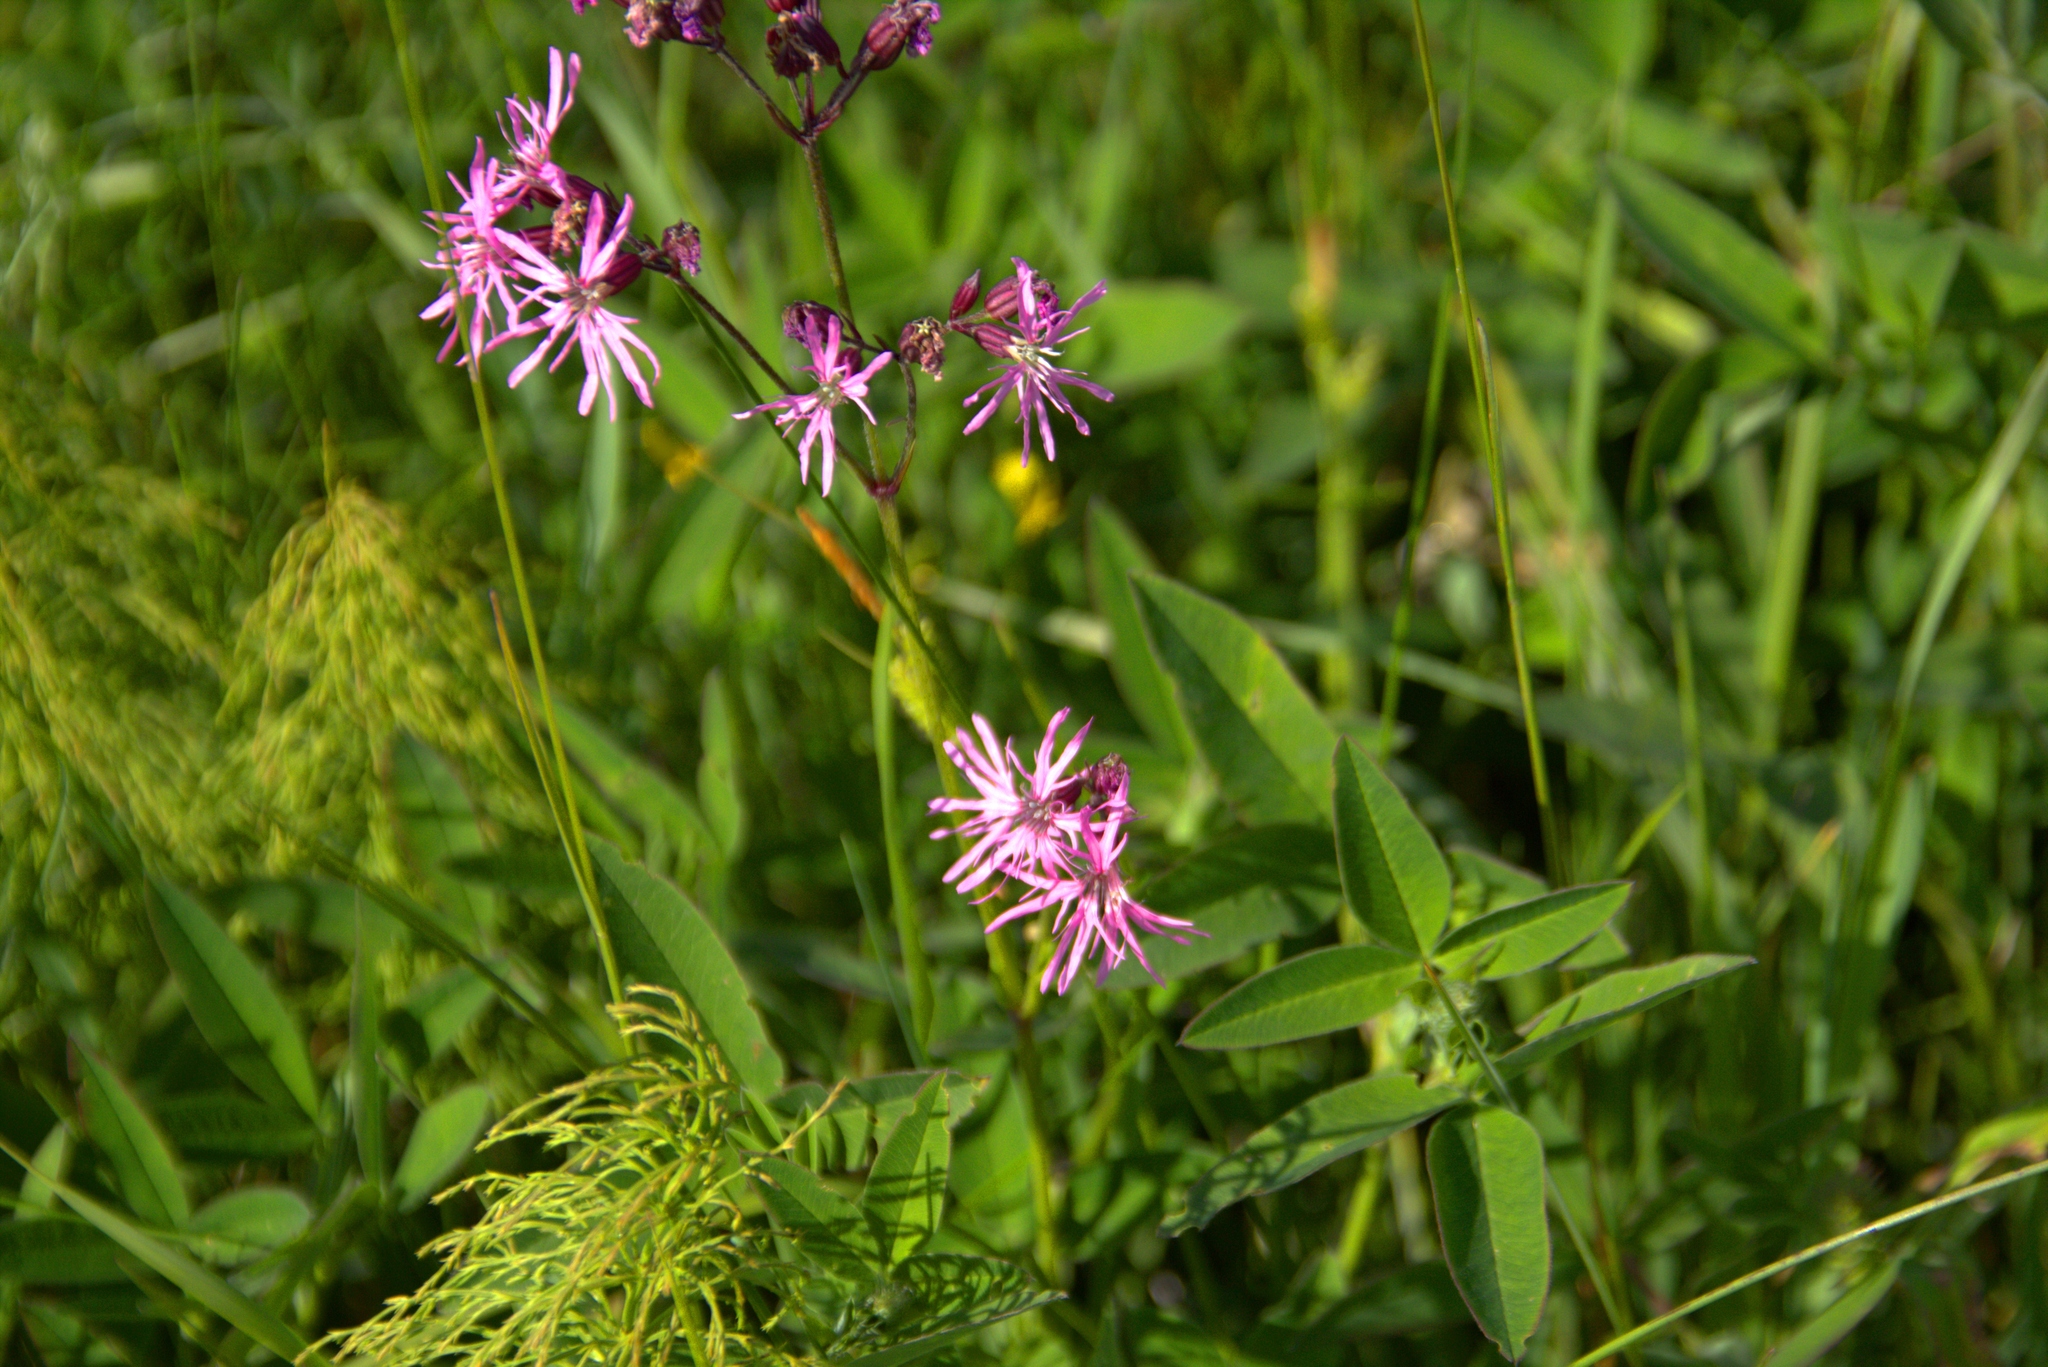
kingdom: Plantae
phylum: Tracheophyta
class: Magnoliopsida
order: Caryophyllales
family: Caryophyllaceae
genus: Silene
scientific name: Silene flos-cuculi
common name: Ragged-robin
